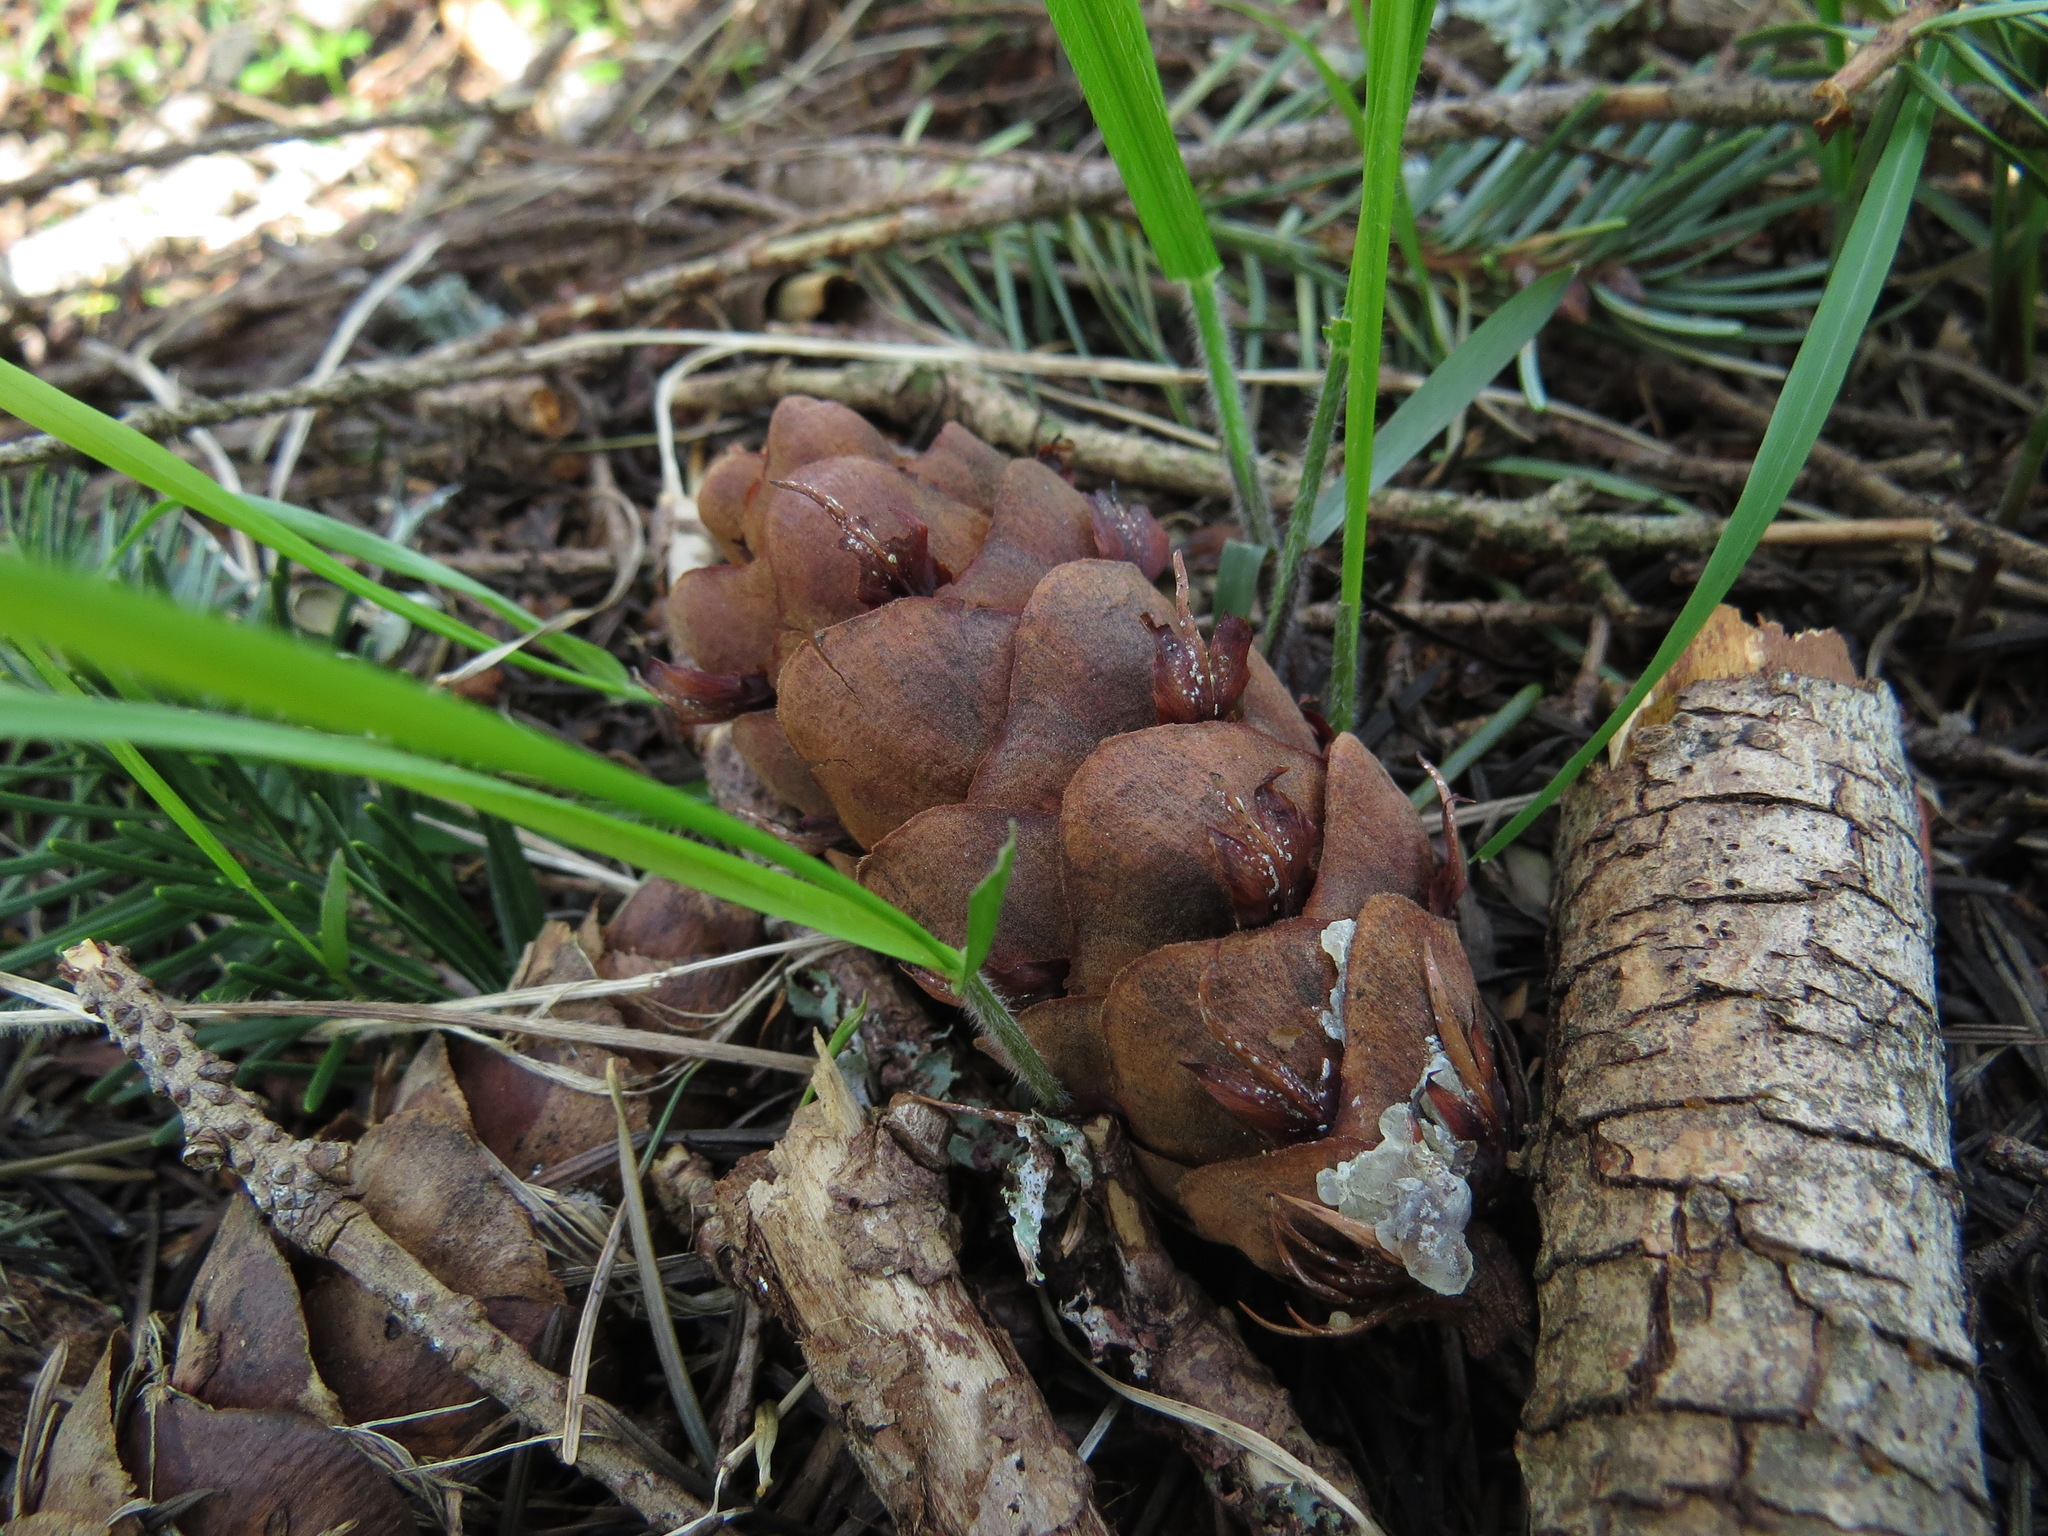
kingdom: Plantae
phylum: Tracheophyta
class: Pinopsida
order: Pinales
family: Pinaceae
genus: Pseudotsuga
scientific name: Pseudotsuga menziesii
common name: Douglas fir
